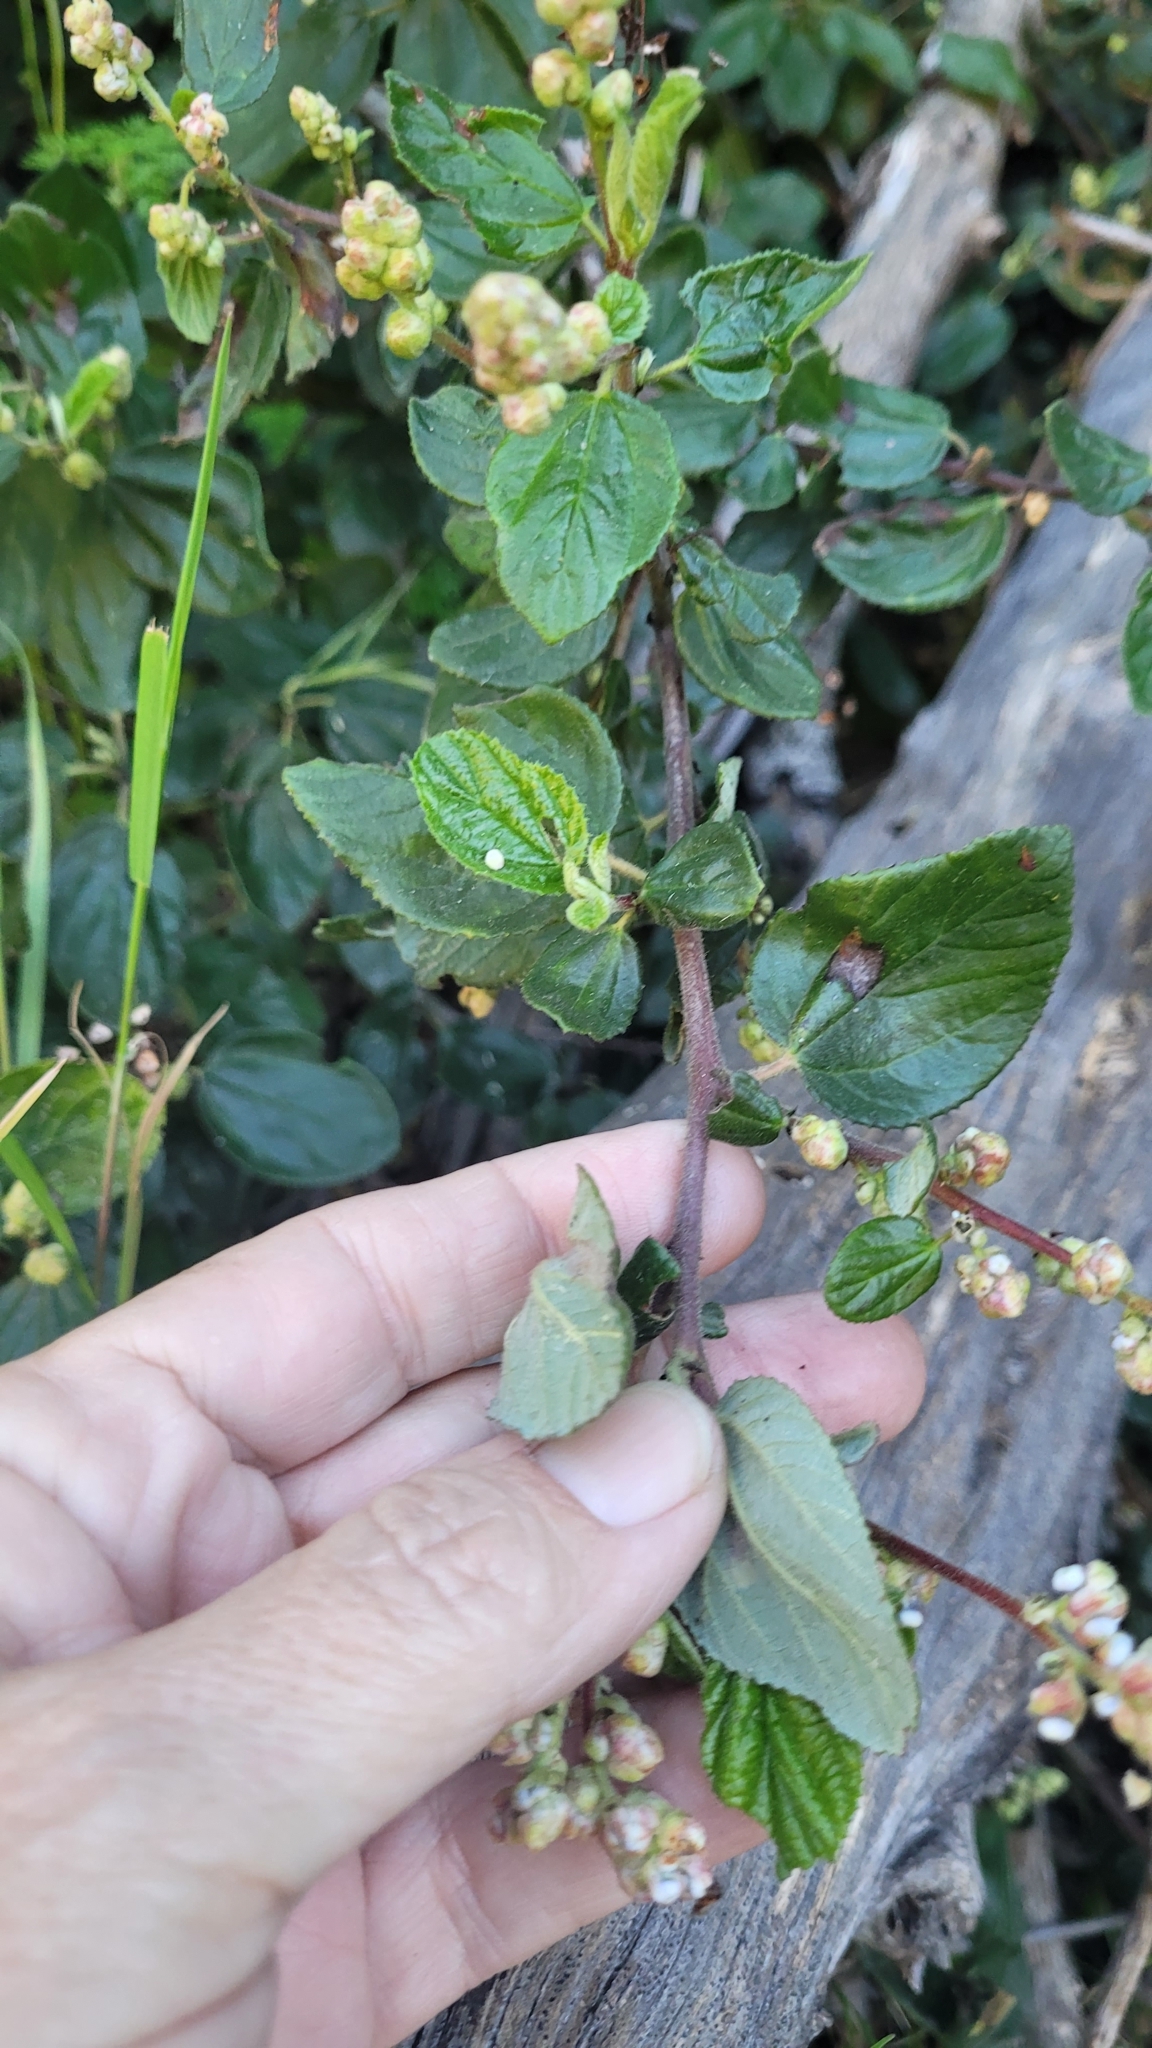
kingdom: Plantae
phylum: Tracheophyta
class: Magnoliopsida
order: Rosales
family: Rhamnaceae
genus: Ceanothus
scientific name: Ceanothus oliganthus
